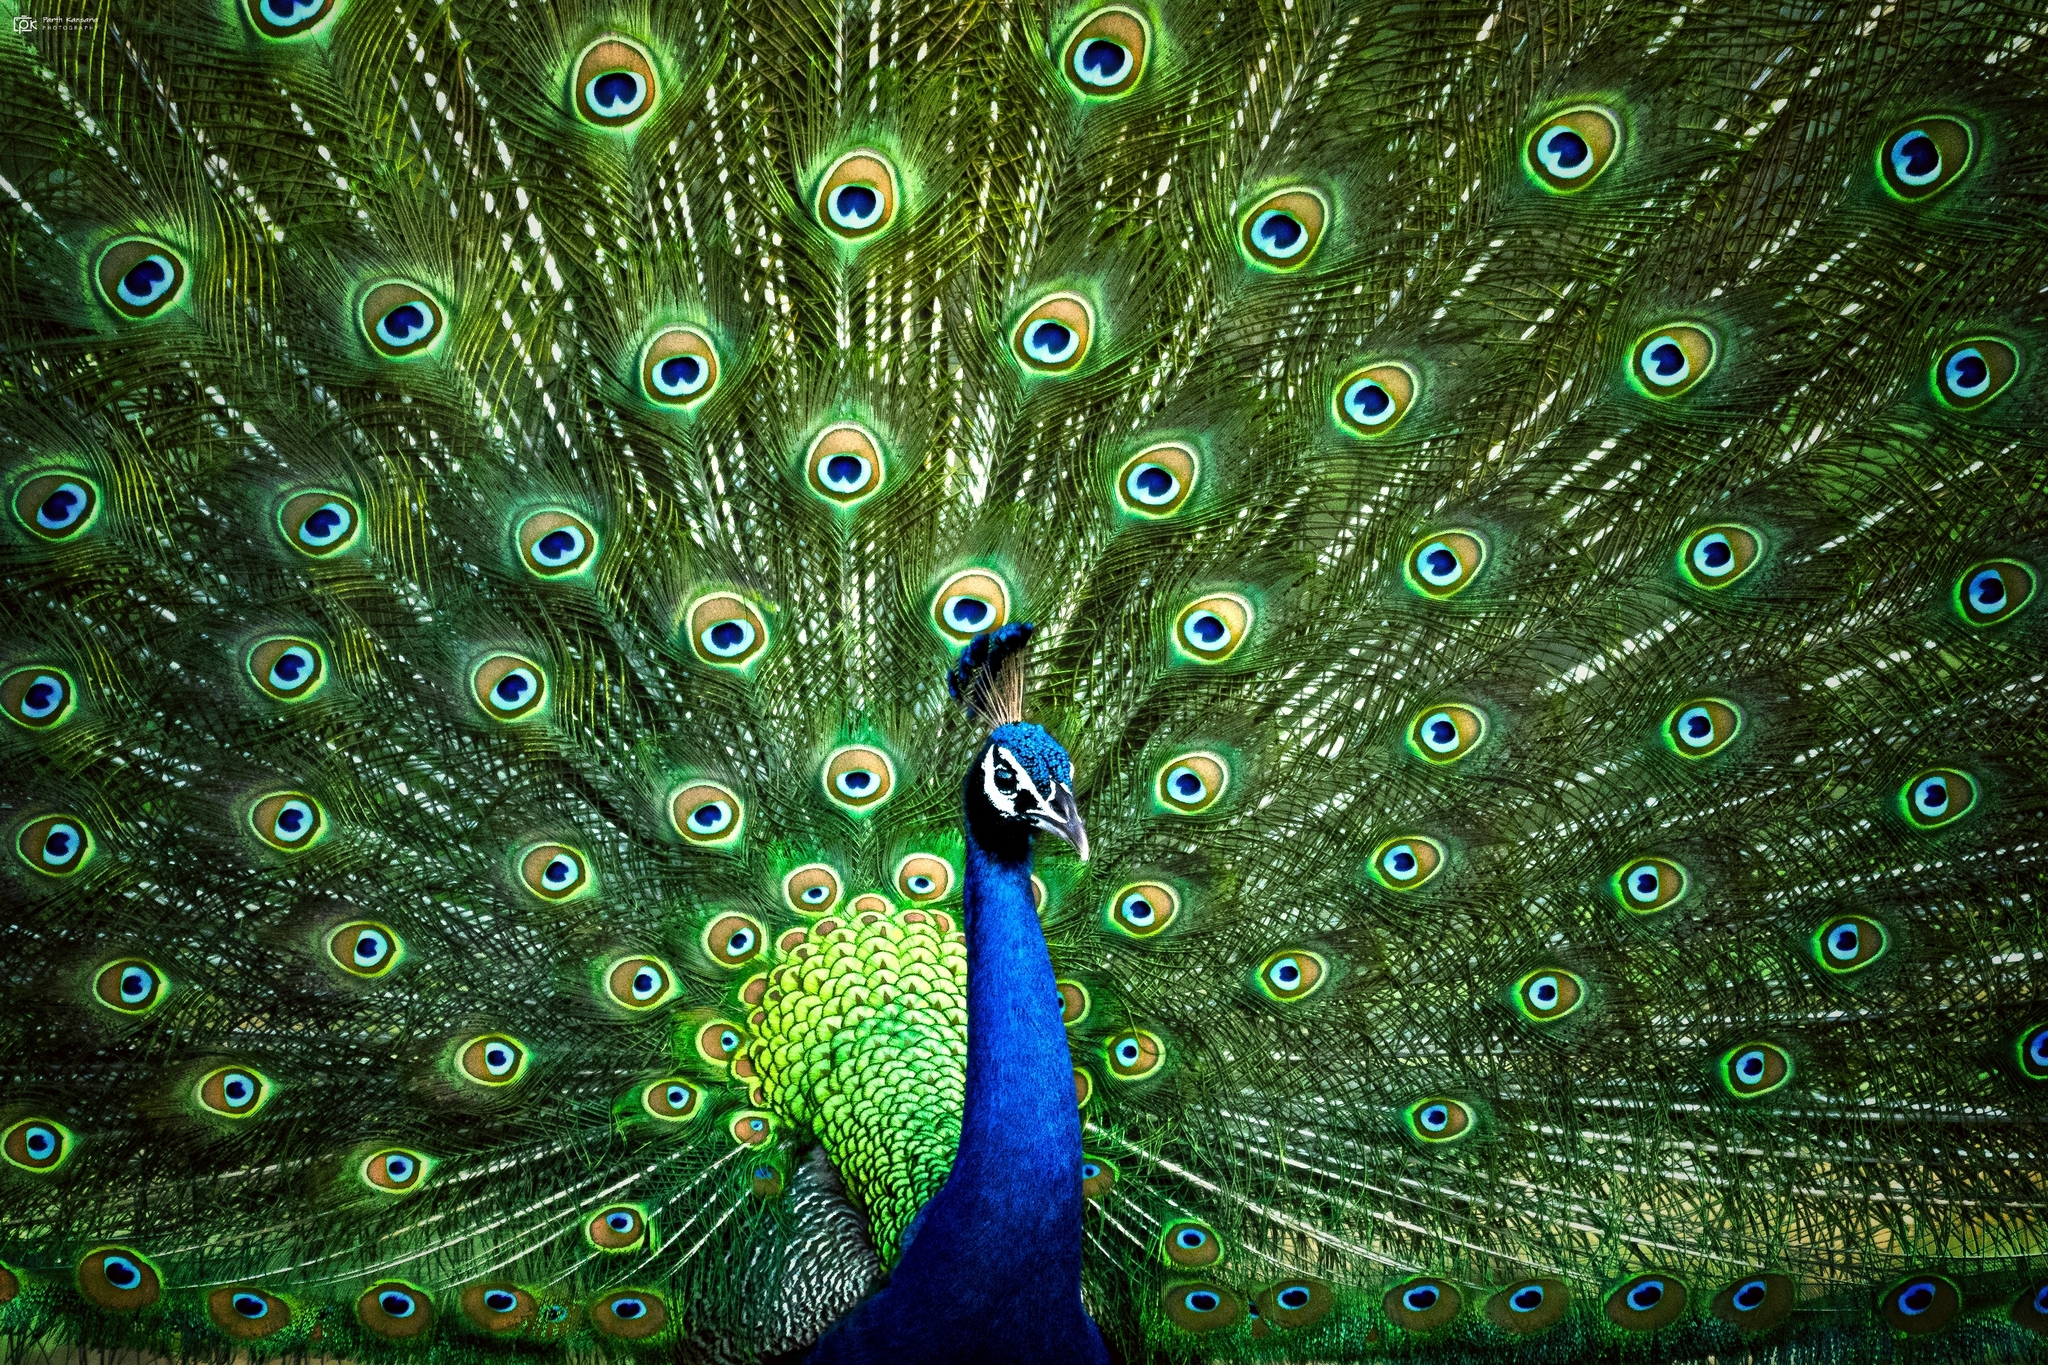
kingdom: Animalia
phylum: Chordata
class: Aves
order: Galliformes
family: Phasianidae
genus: Pavo
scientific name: Pavo cristatus
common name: Indian peafowl
